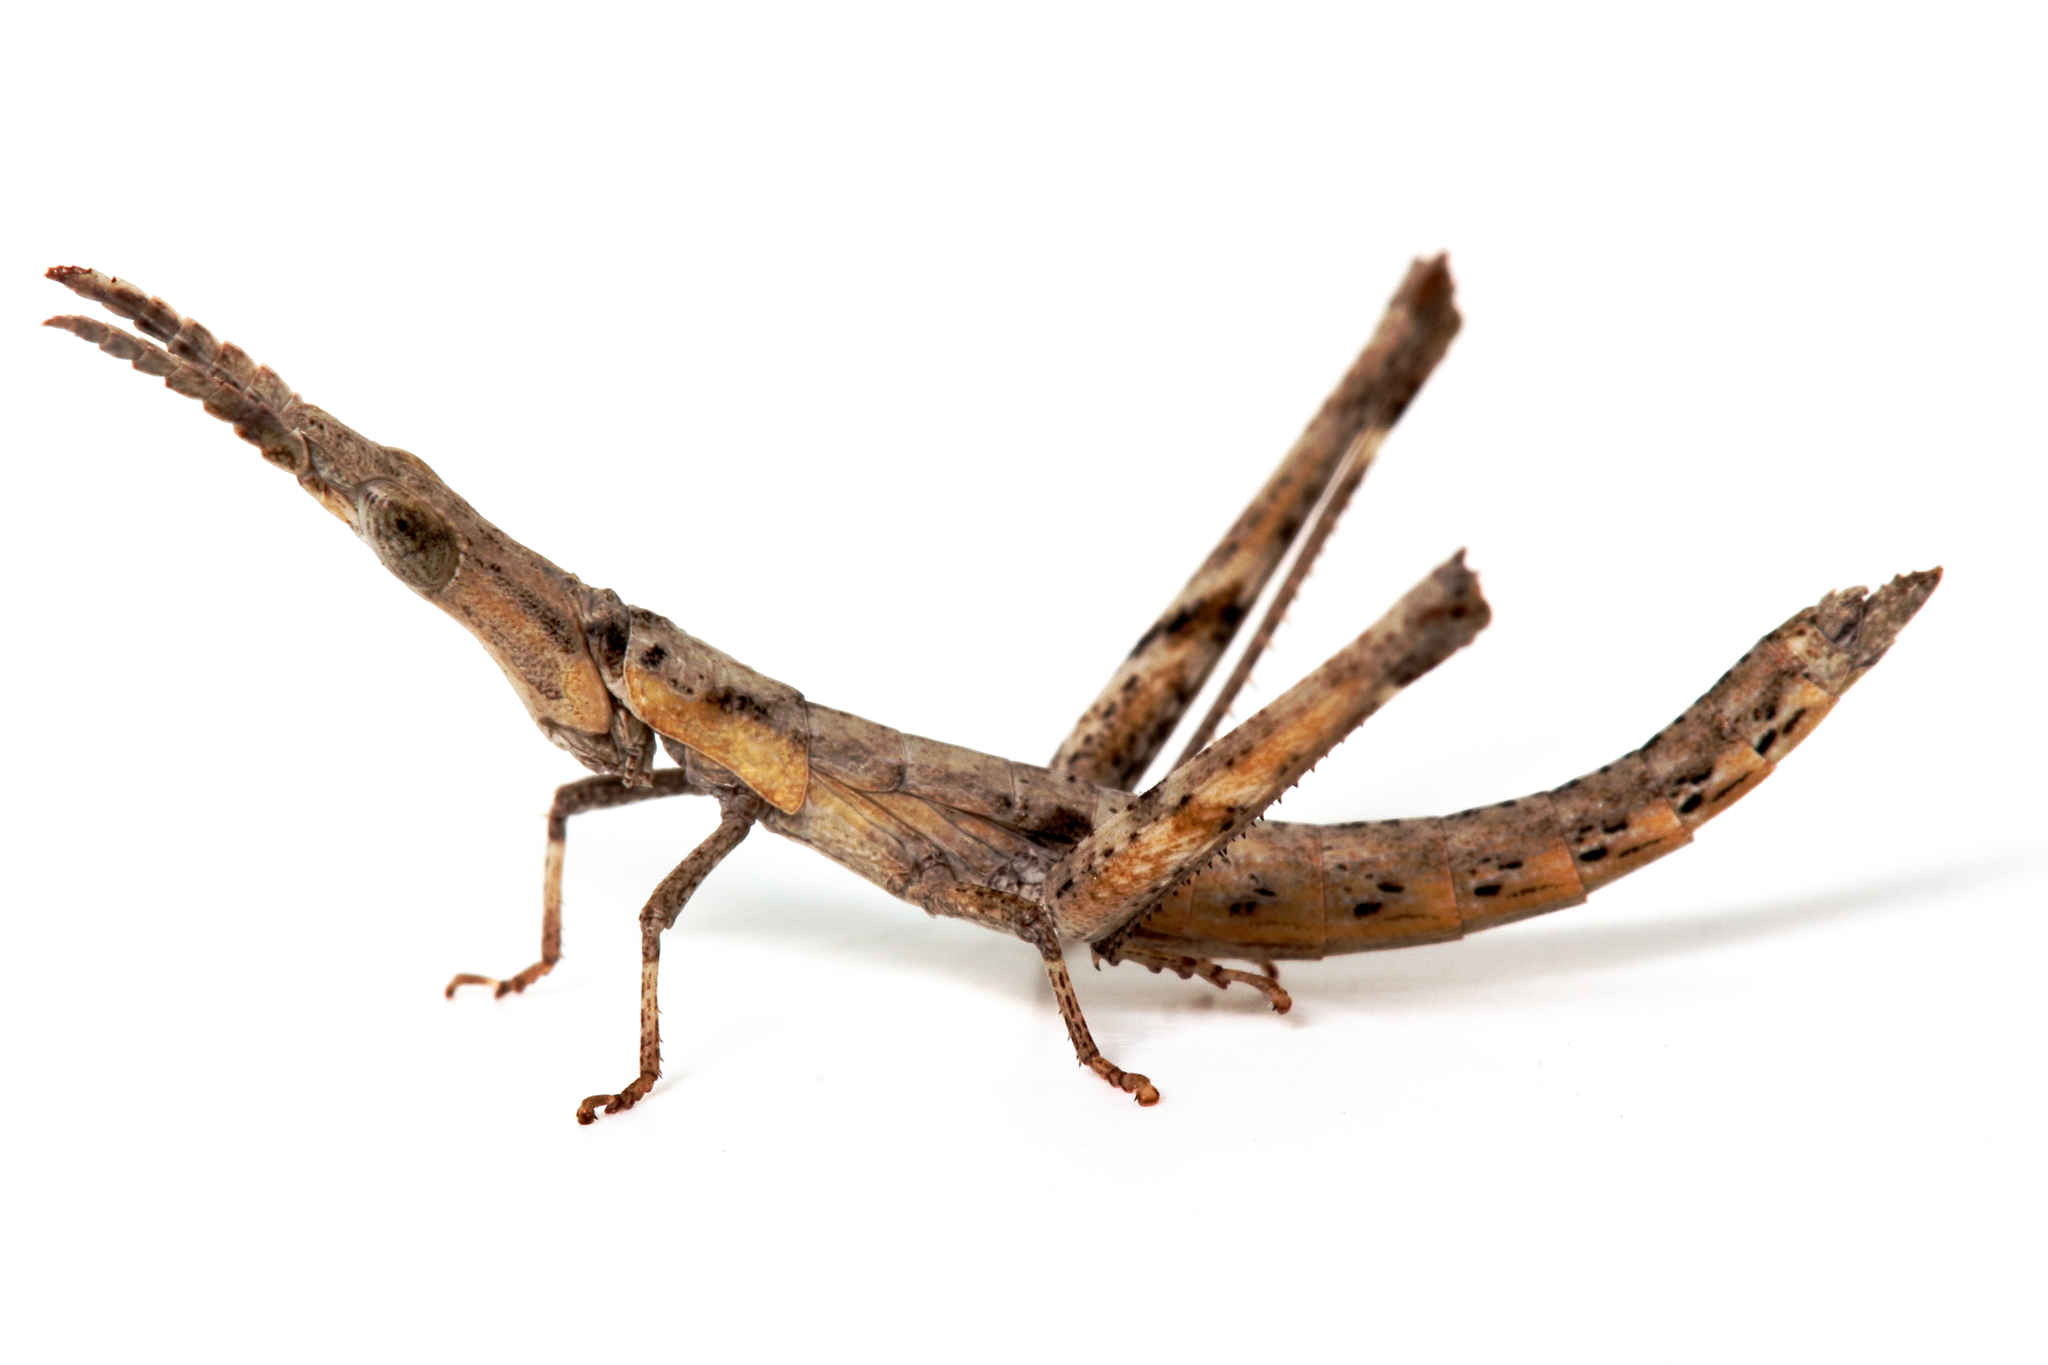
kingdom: Animalia
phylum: Arthropoda
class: Insecta
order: Orthoptera
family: Morabidae
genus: Vandiemenella
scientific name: Vandiemenella viatica
